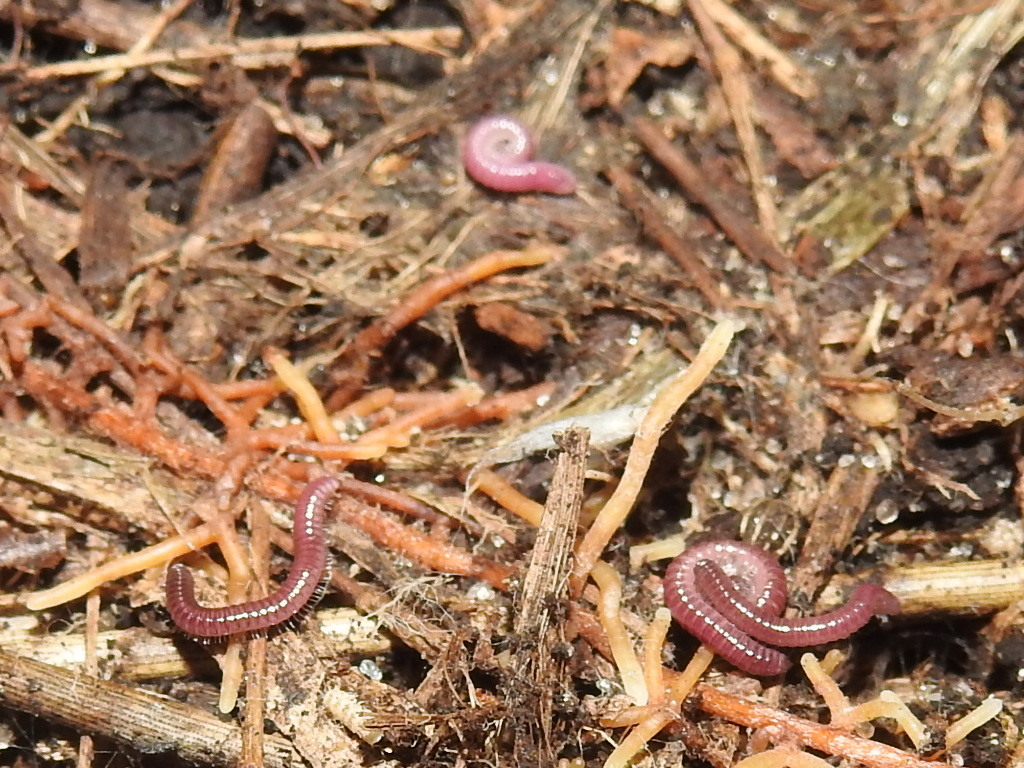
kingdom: Animalia
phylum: Arthropoda
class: Diplopoda
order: Polyzoniida
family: Siphonotidae
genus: Rhinotus
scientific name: Rhinotus purpureus
